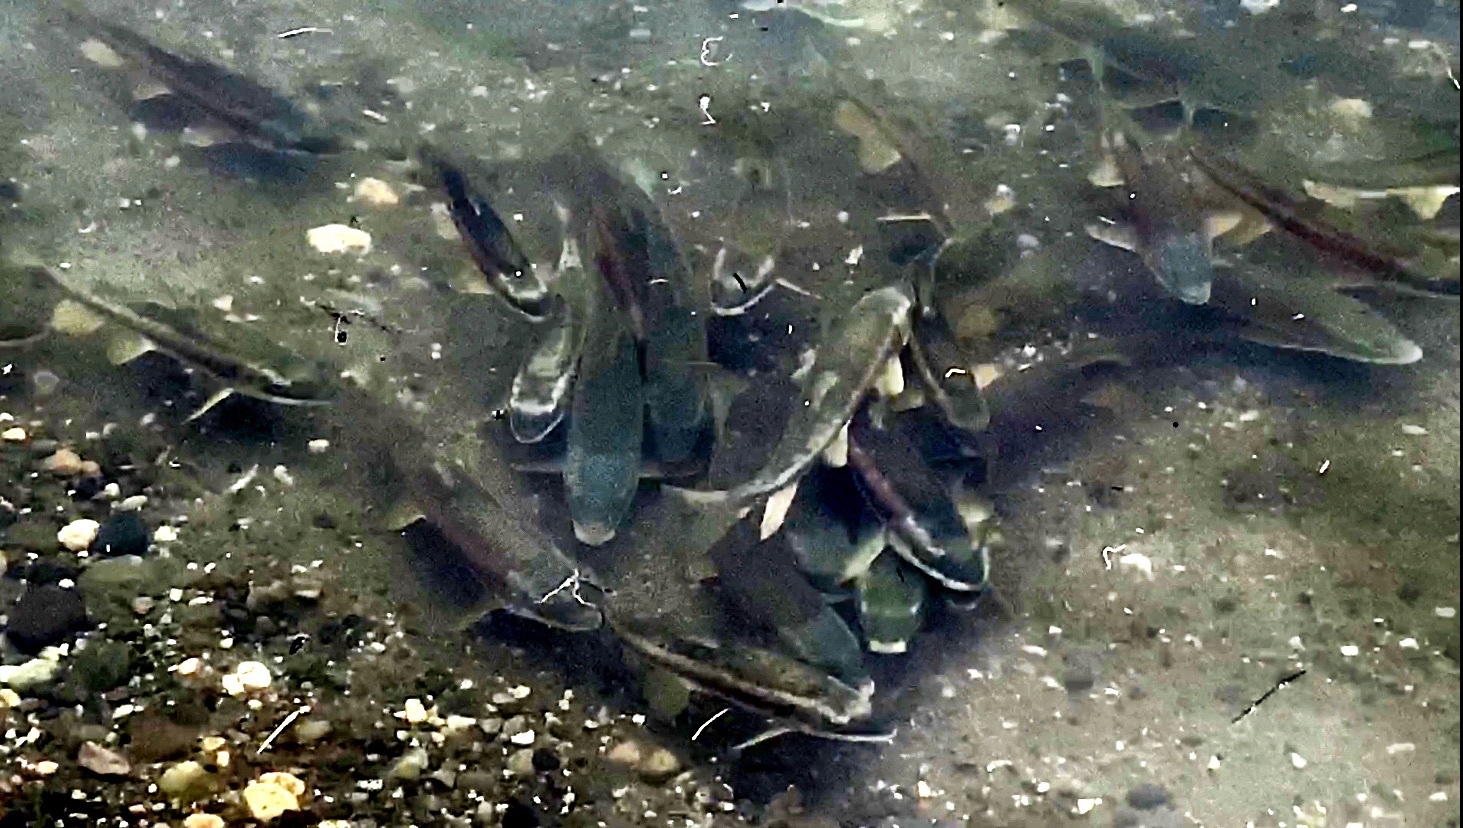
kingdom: Animalia
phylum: Chordata
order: Cypriniformes
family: Catostomidae
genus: Catostomus
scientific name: Catostomus catostomus
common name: Longnose sucker
